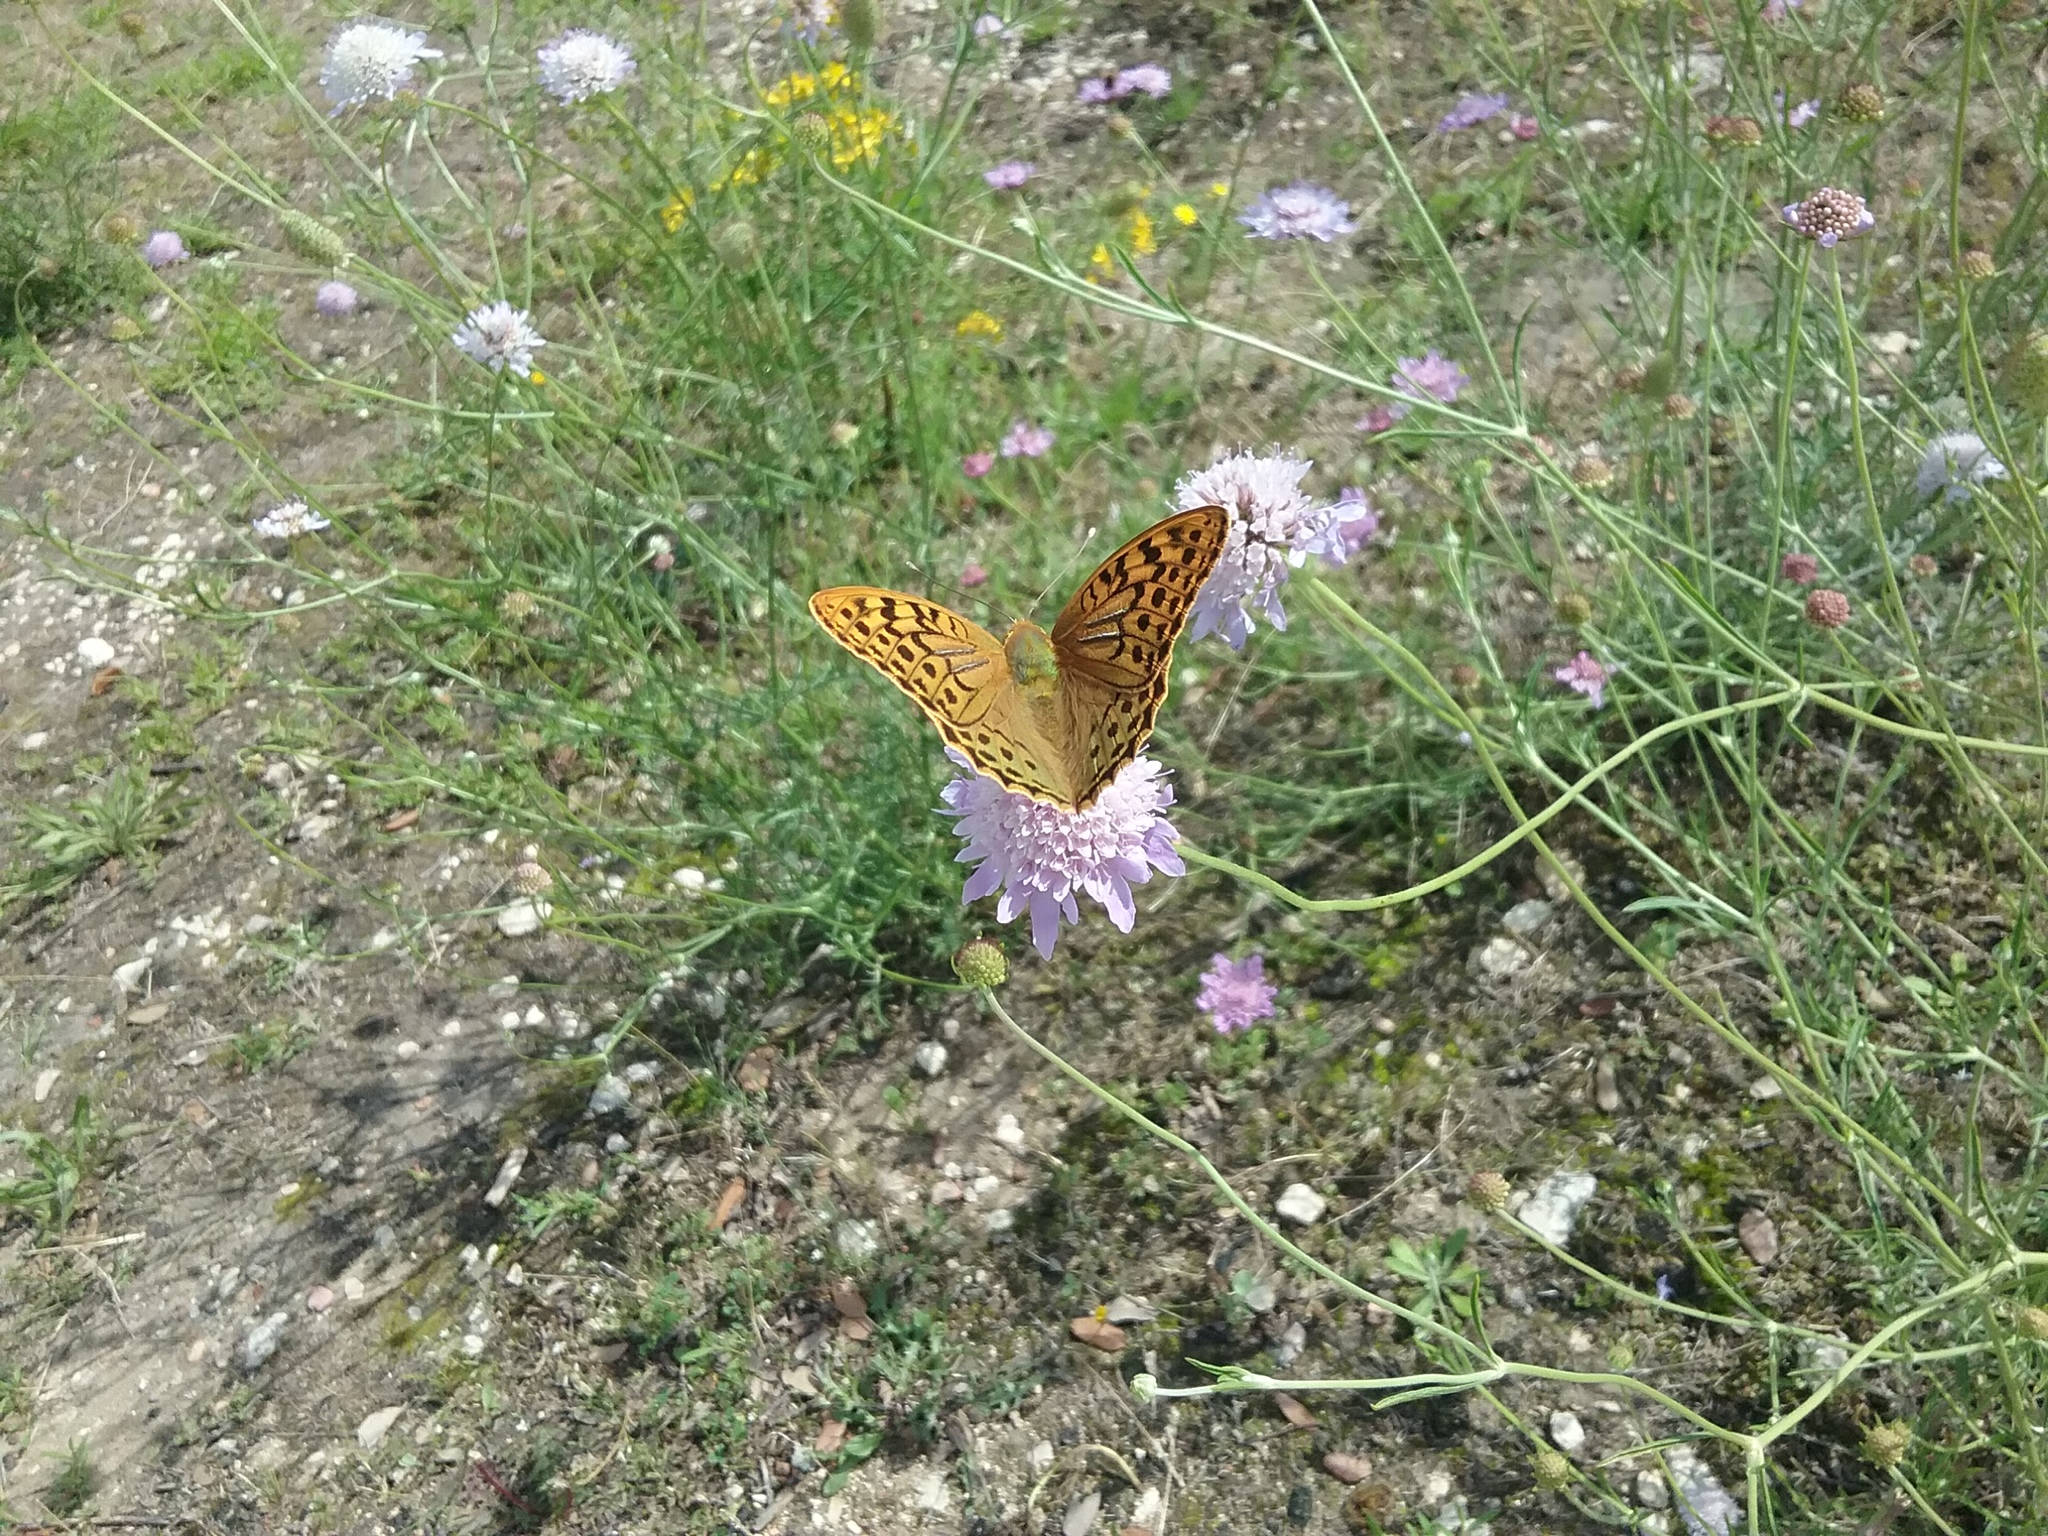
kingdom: Animalia
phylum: Arthropoda
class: Insecta
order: Lepidoptera
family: Nymphalidae
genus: Damora
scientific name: Damora pandora
